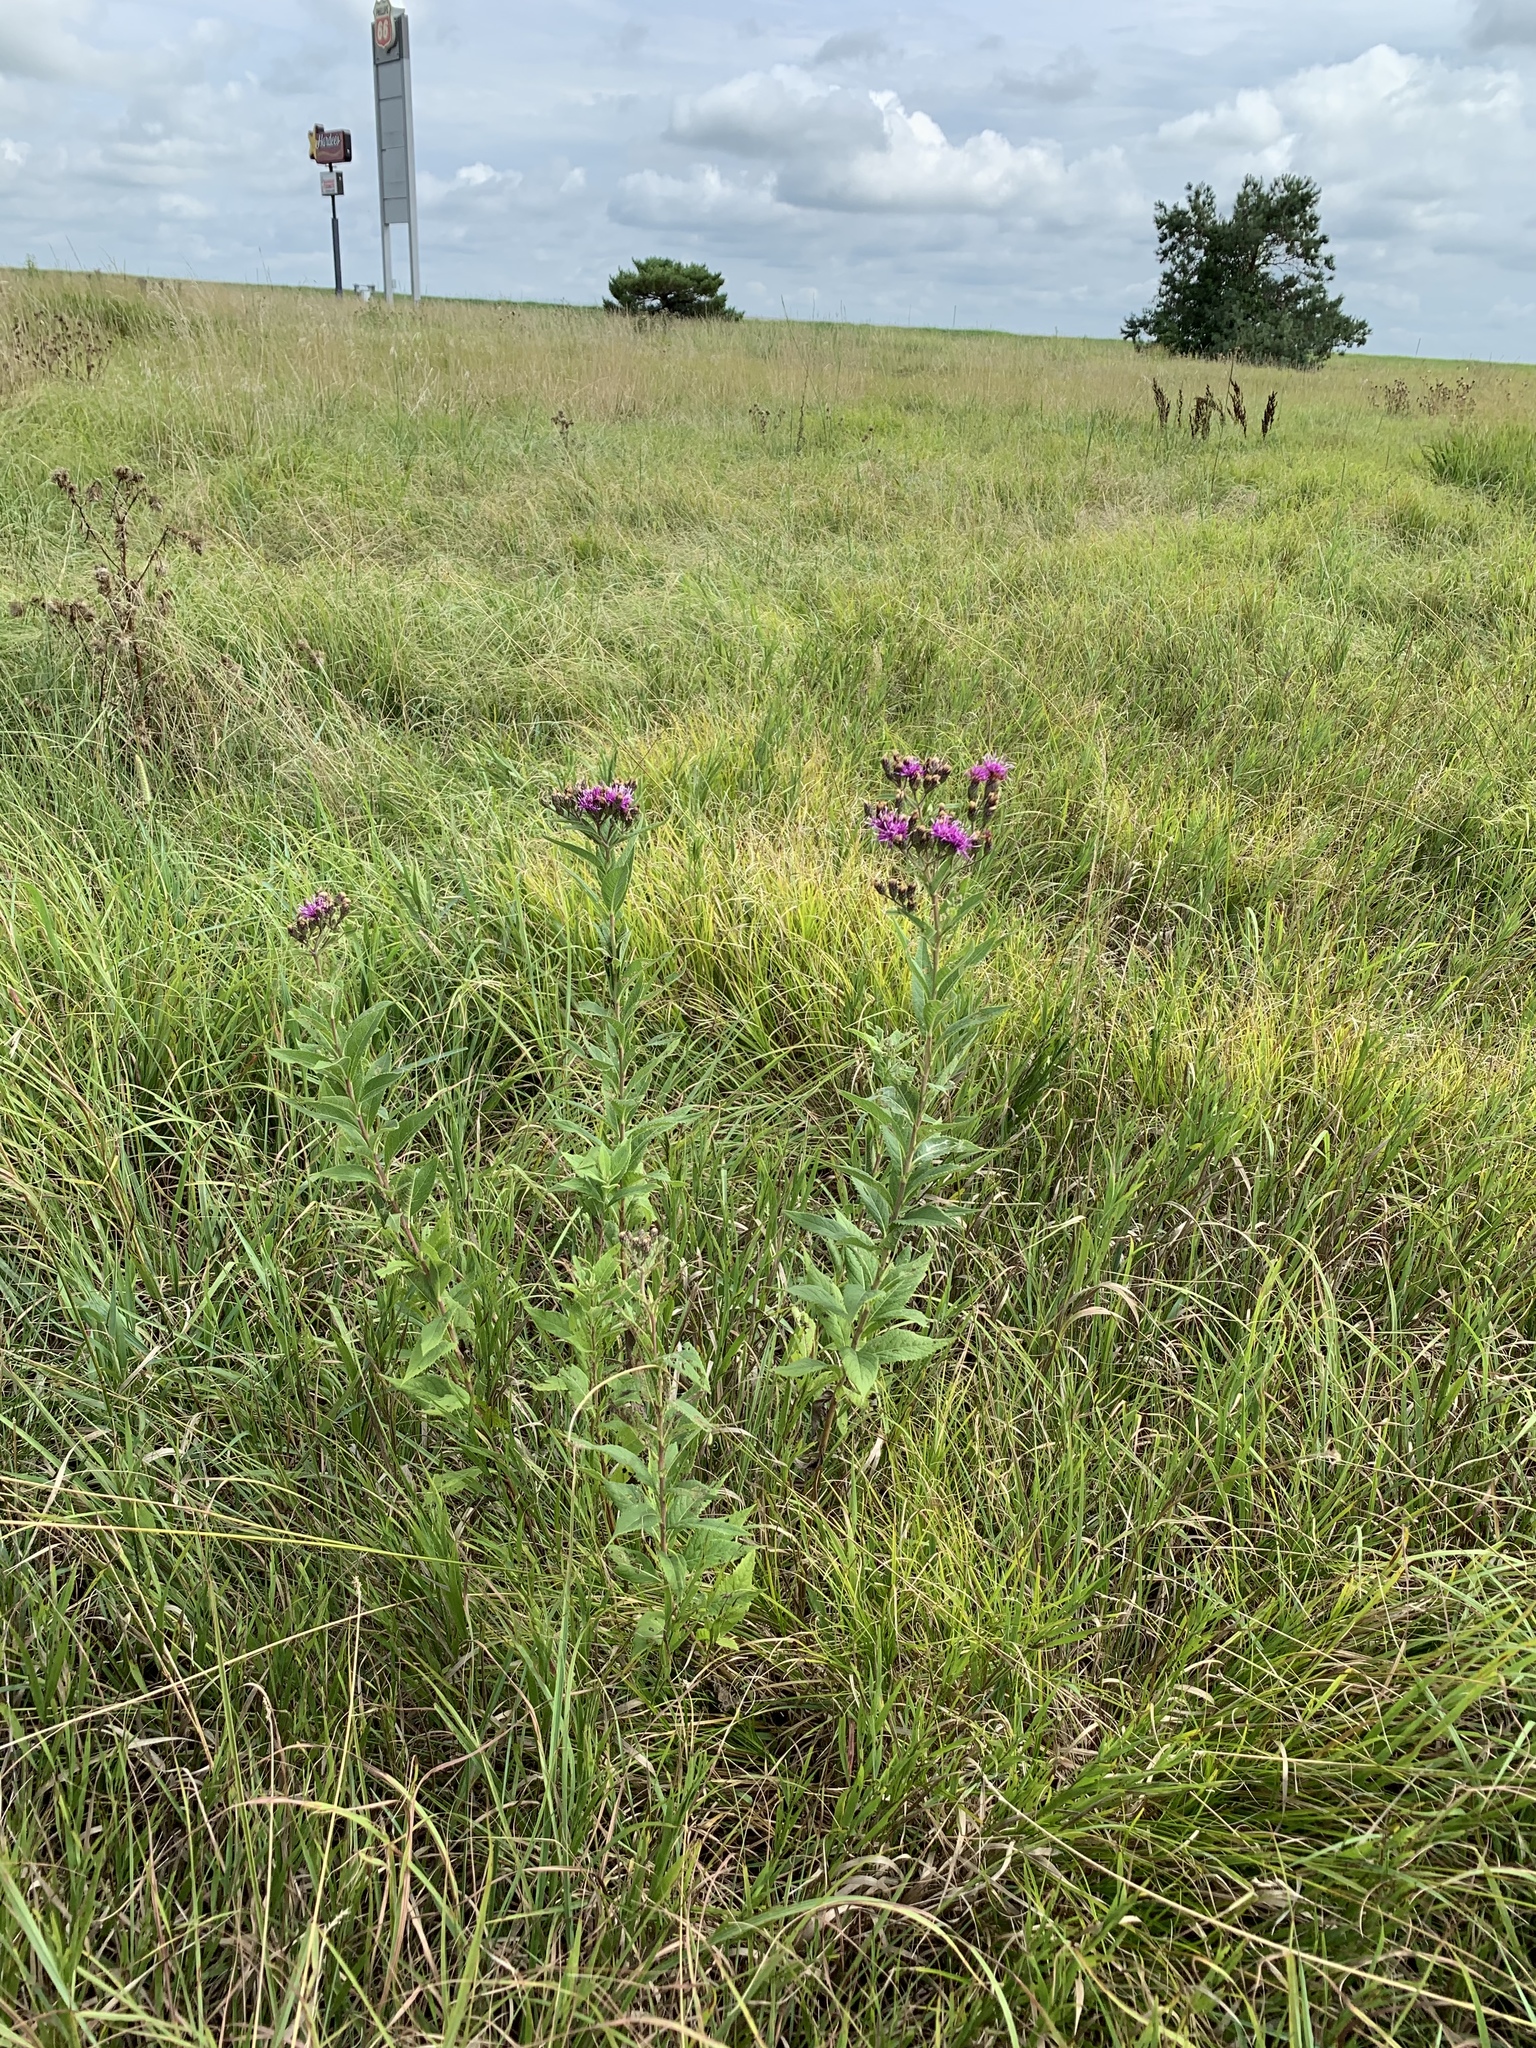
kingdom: Plantae
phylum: Tracheophyta
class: Magnoliopsida
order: Asterales
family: Asteraceae
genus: Vernonia
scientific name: Vernonia baldwinii
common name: Western ironweed
